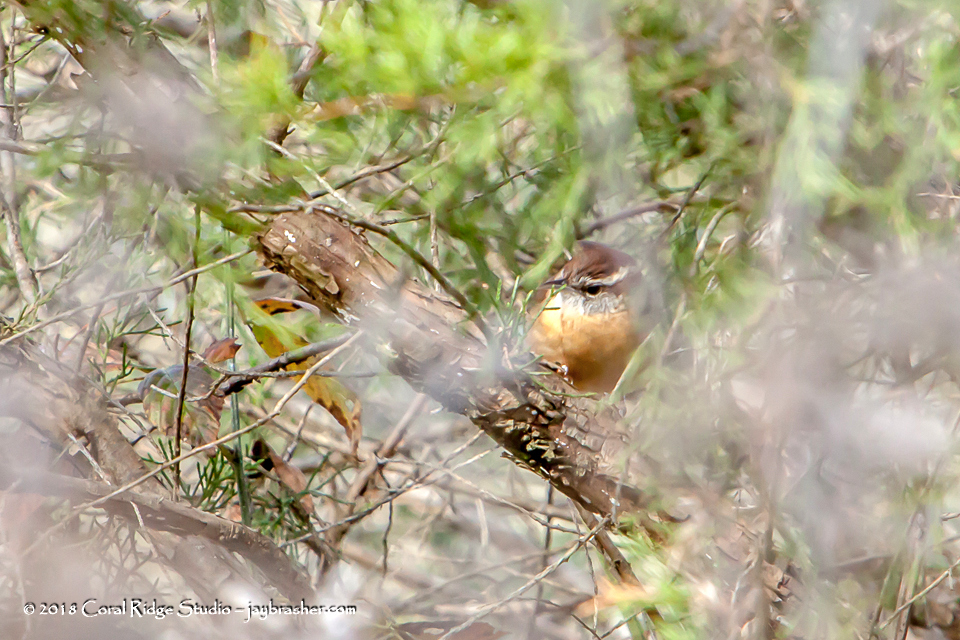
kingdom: Animalia
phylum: Chordata
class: Aves
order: Passeriformes
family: Troglodytidae
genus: Thryothorus
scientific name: Thryothorus ludovicianus
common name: Carolina wren
